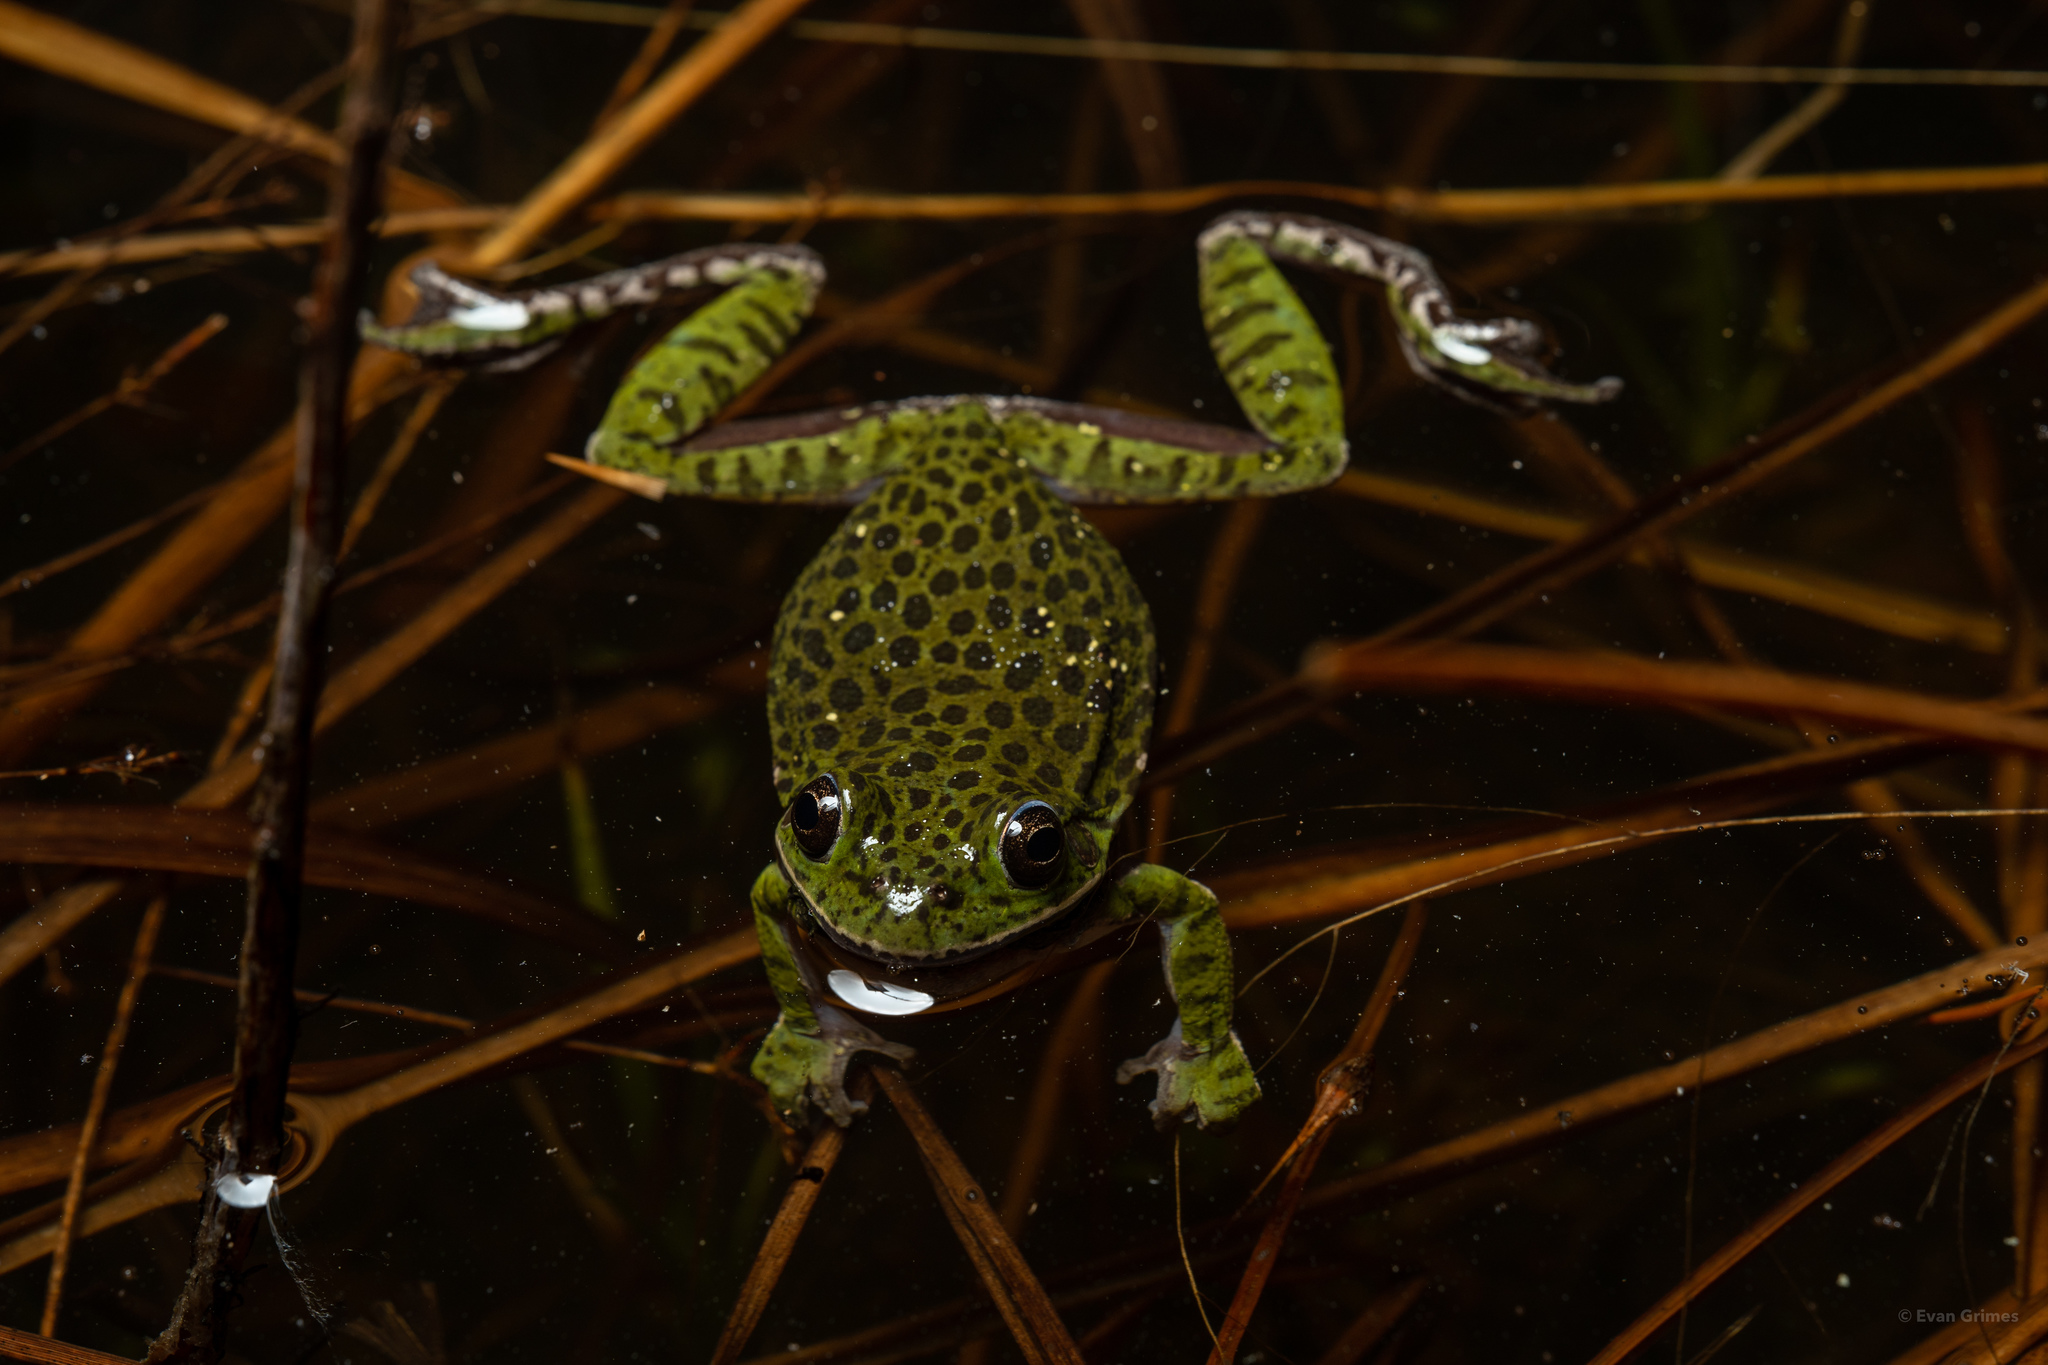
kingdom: Animalia
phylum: Chordata
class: Amphibia
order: Anura
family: Hylidae
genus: Dryophytes
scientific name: Dryophytes gratiosus
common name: Barking treefrog
